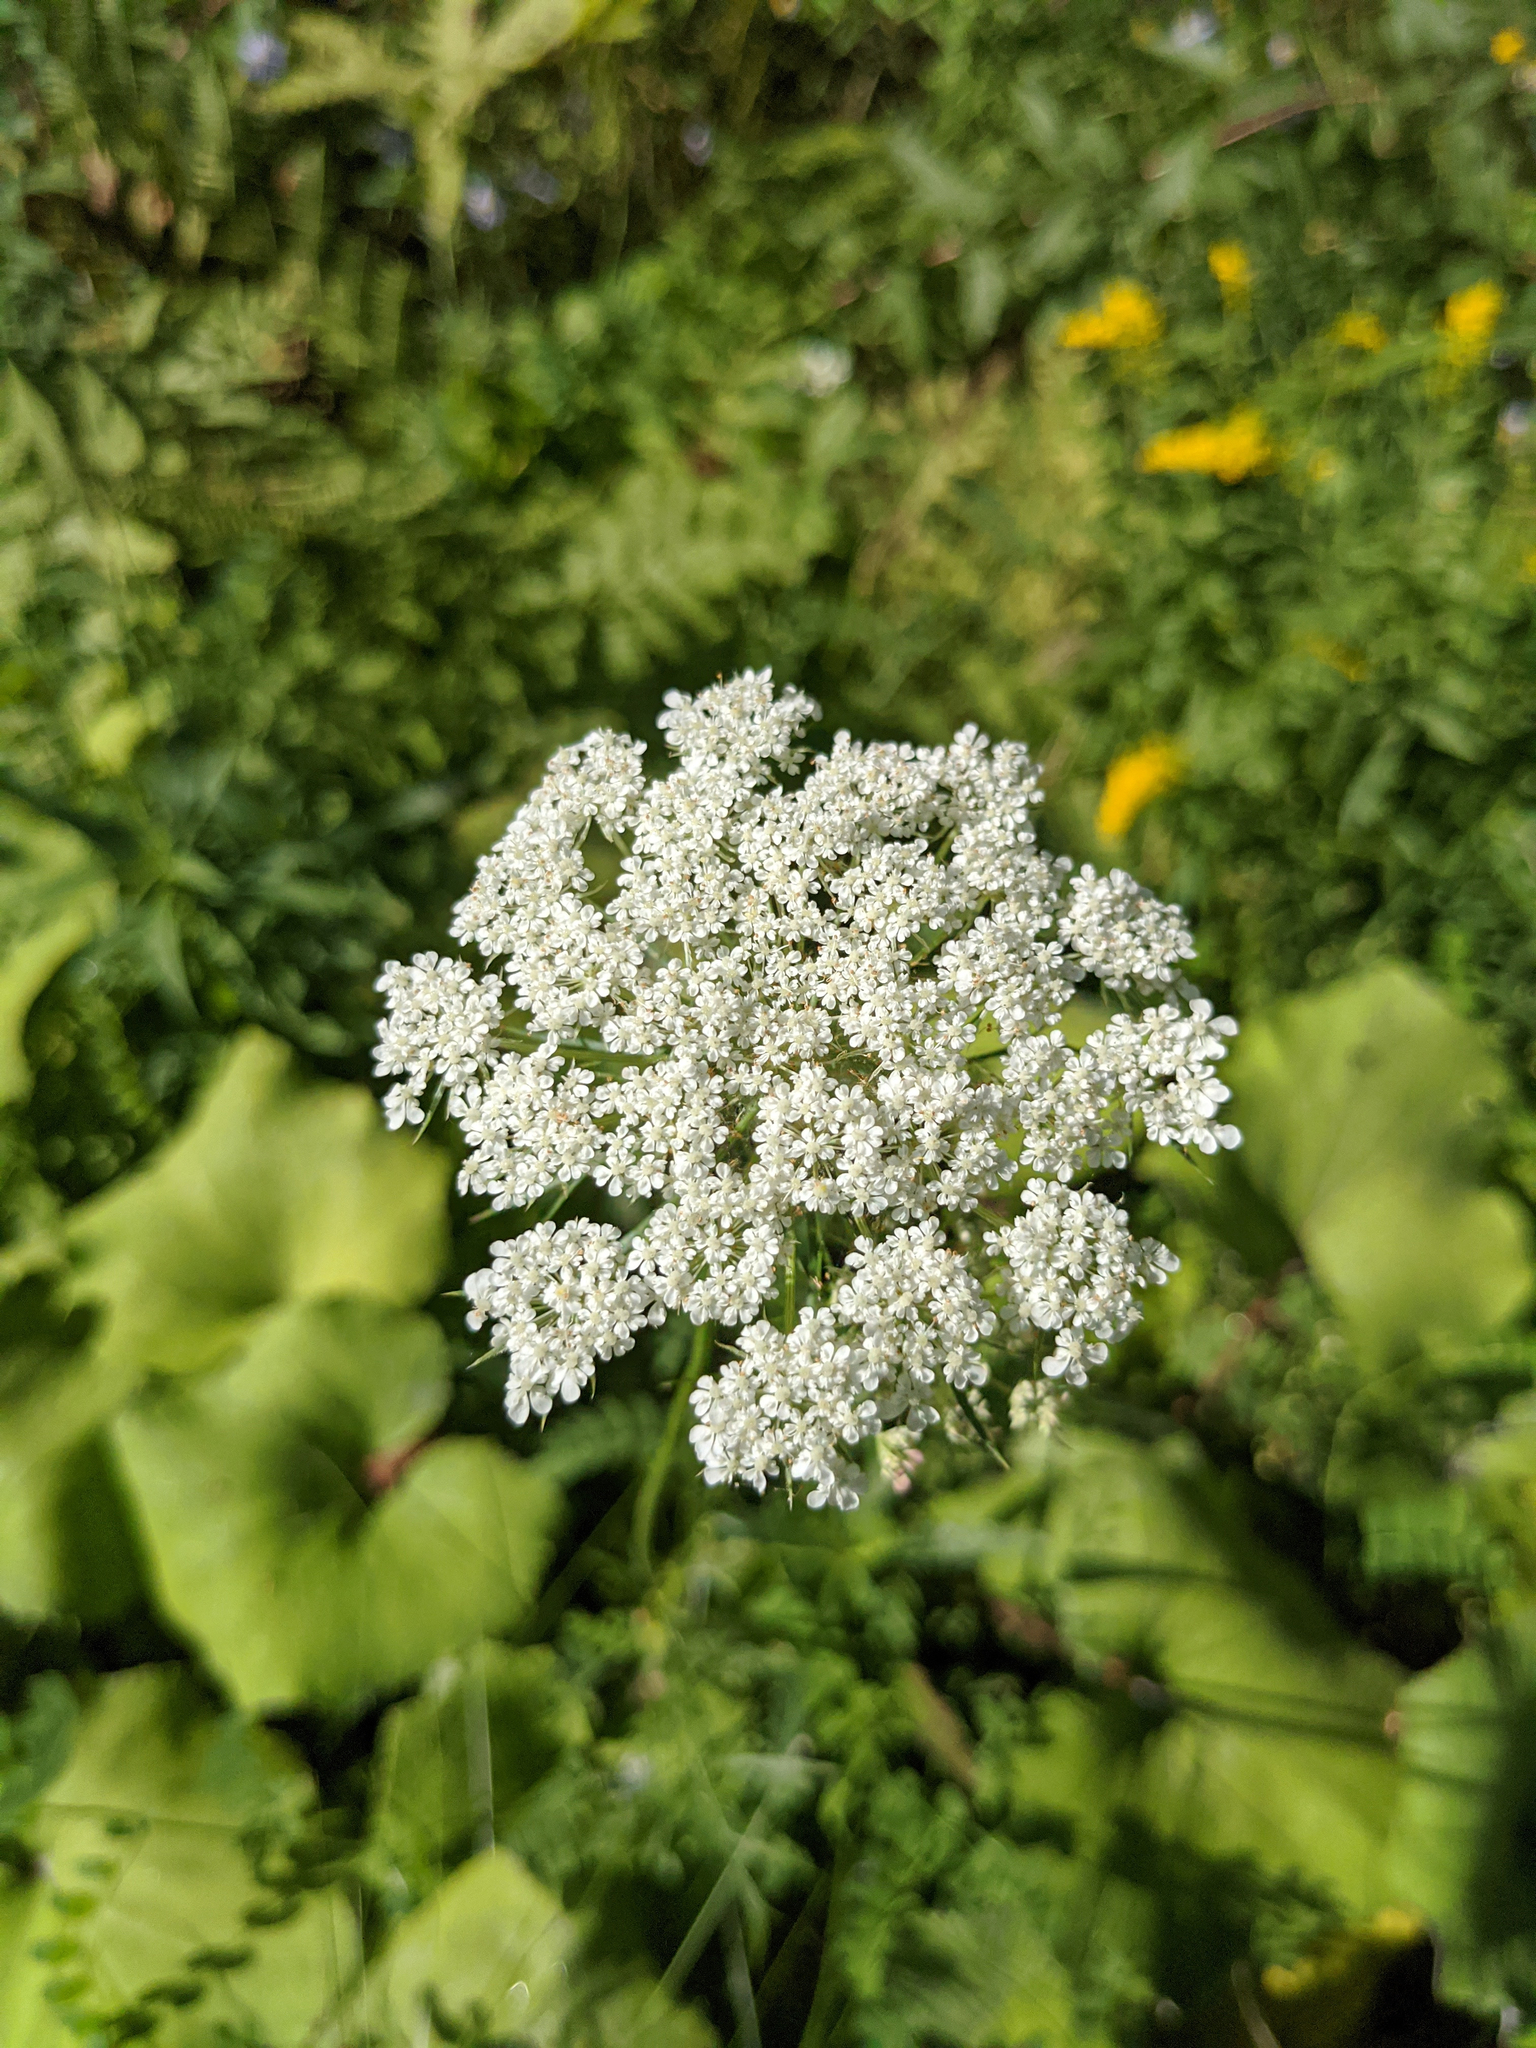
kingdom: Plantae
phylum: Tracheophyta
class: Magnoliopsida
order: Apiales
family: Apiaceae
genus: Daucus
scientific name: Daucus carota
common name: Wild carrot
